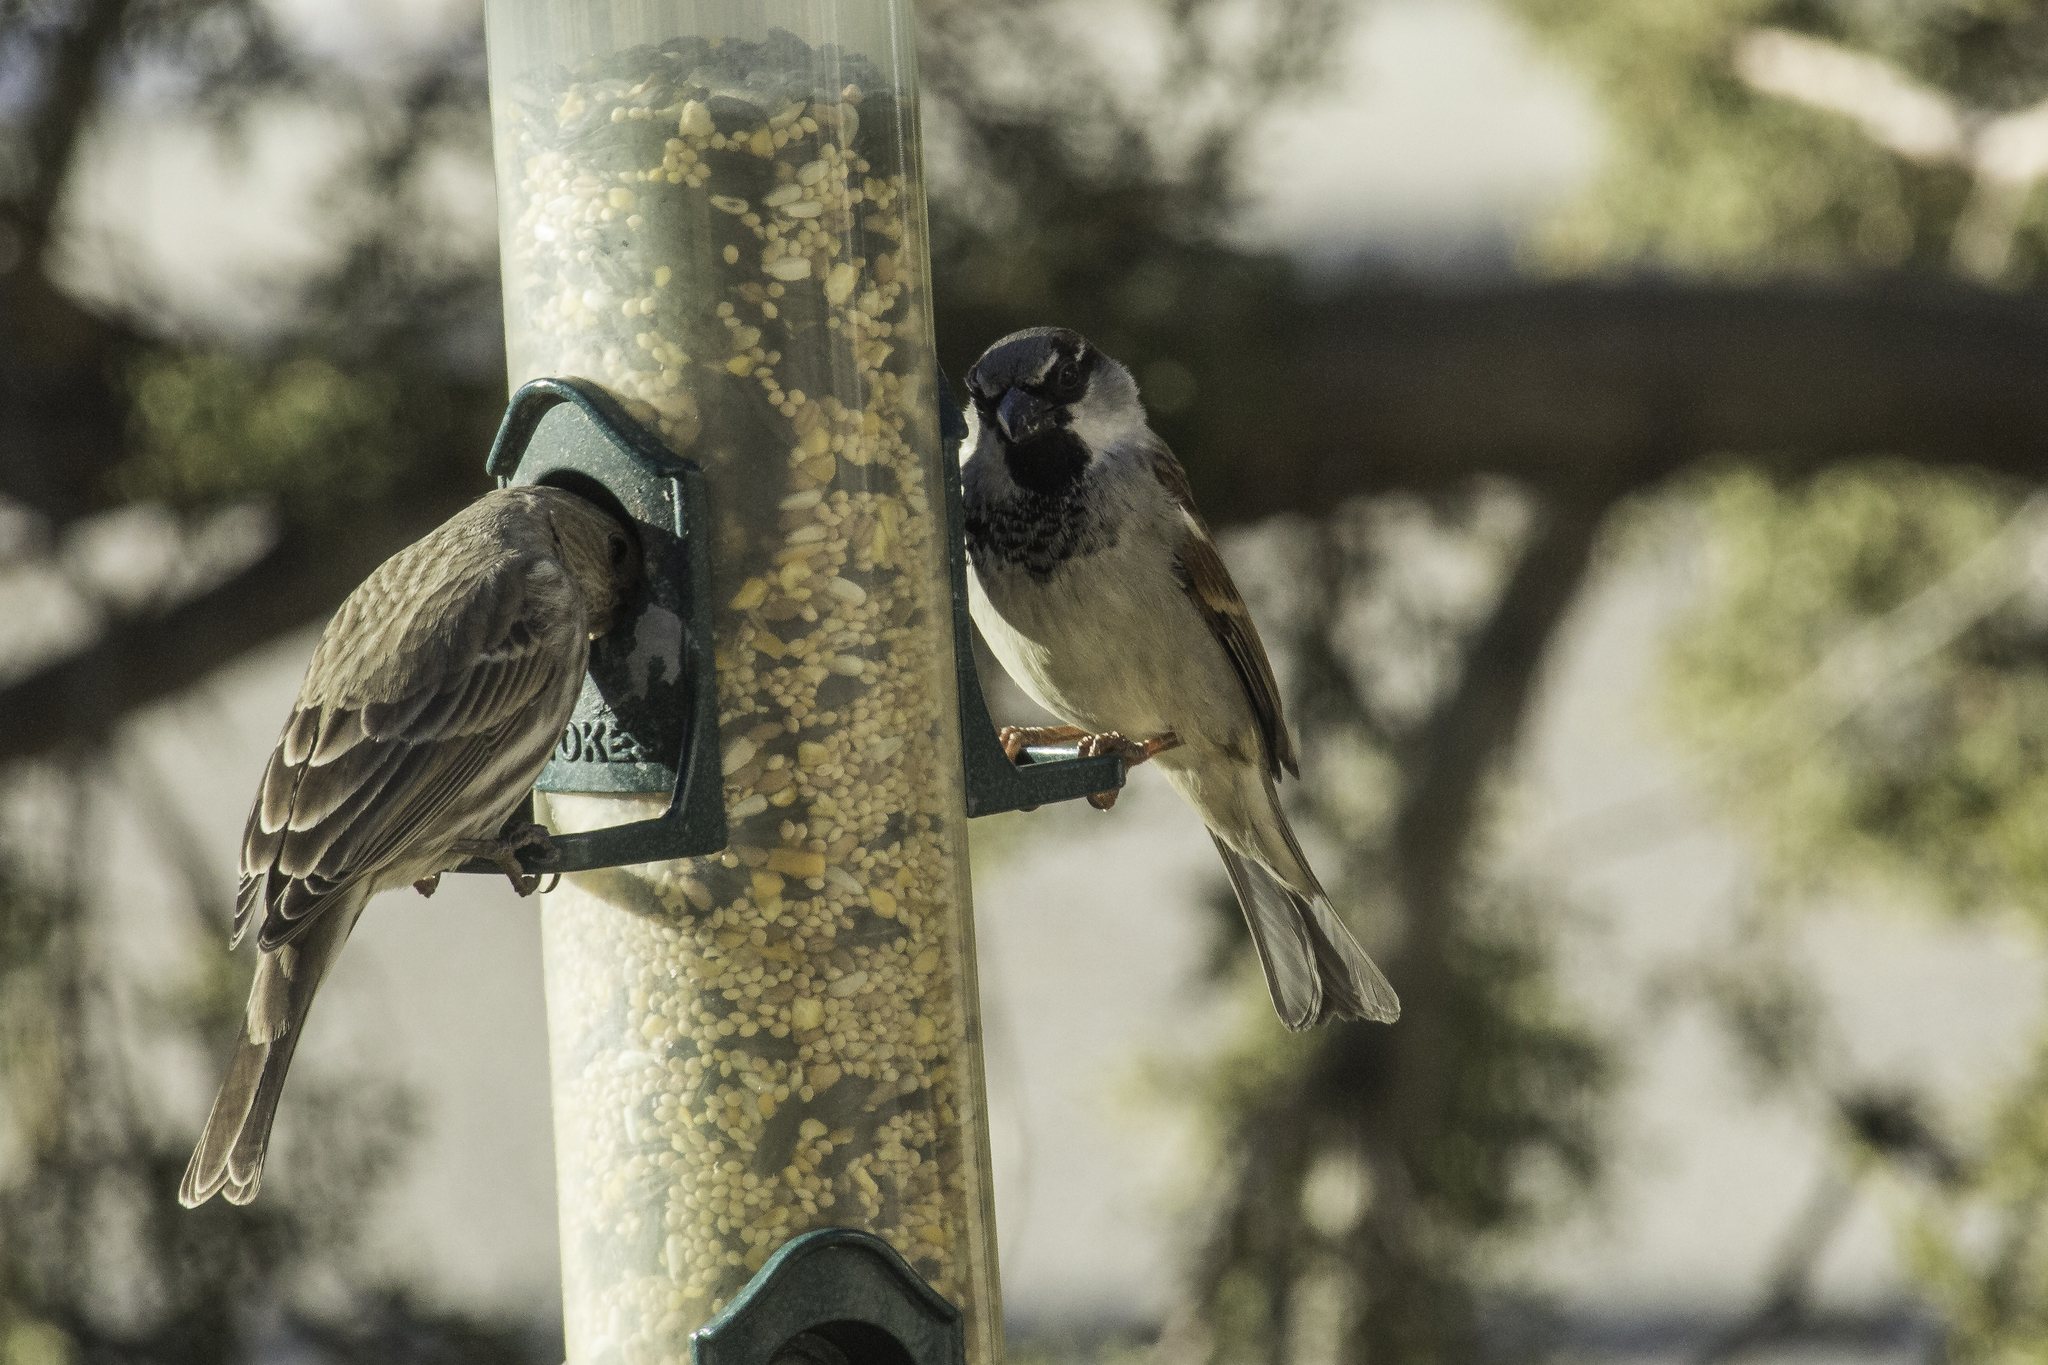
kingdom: Animalia
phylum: Chordata
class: Aves
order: Passeriformes
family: Passeridae
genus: Passer
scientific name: Passer domesticus
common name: House sparrow
